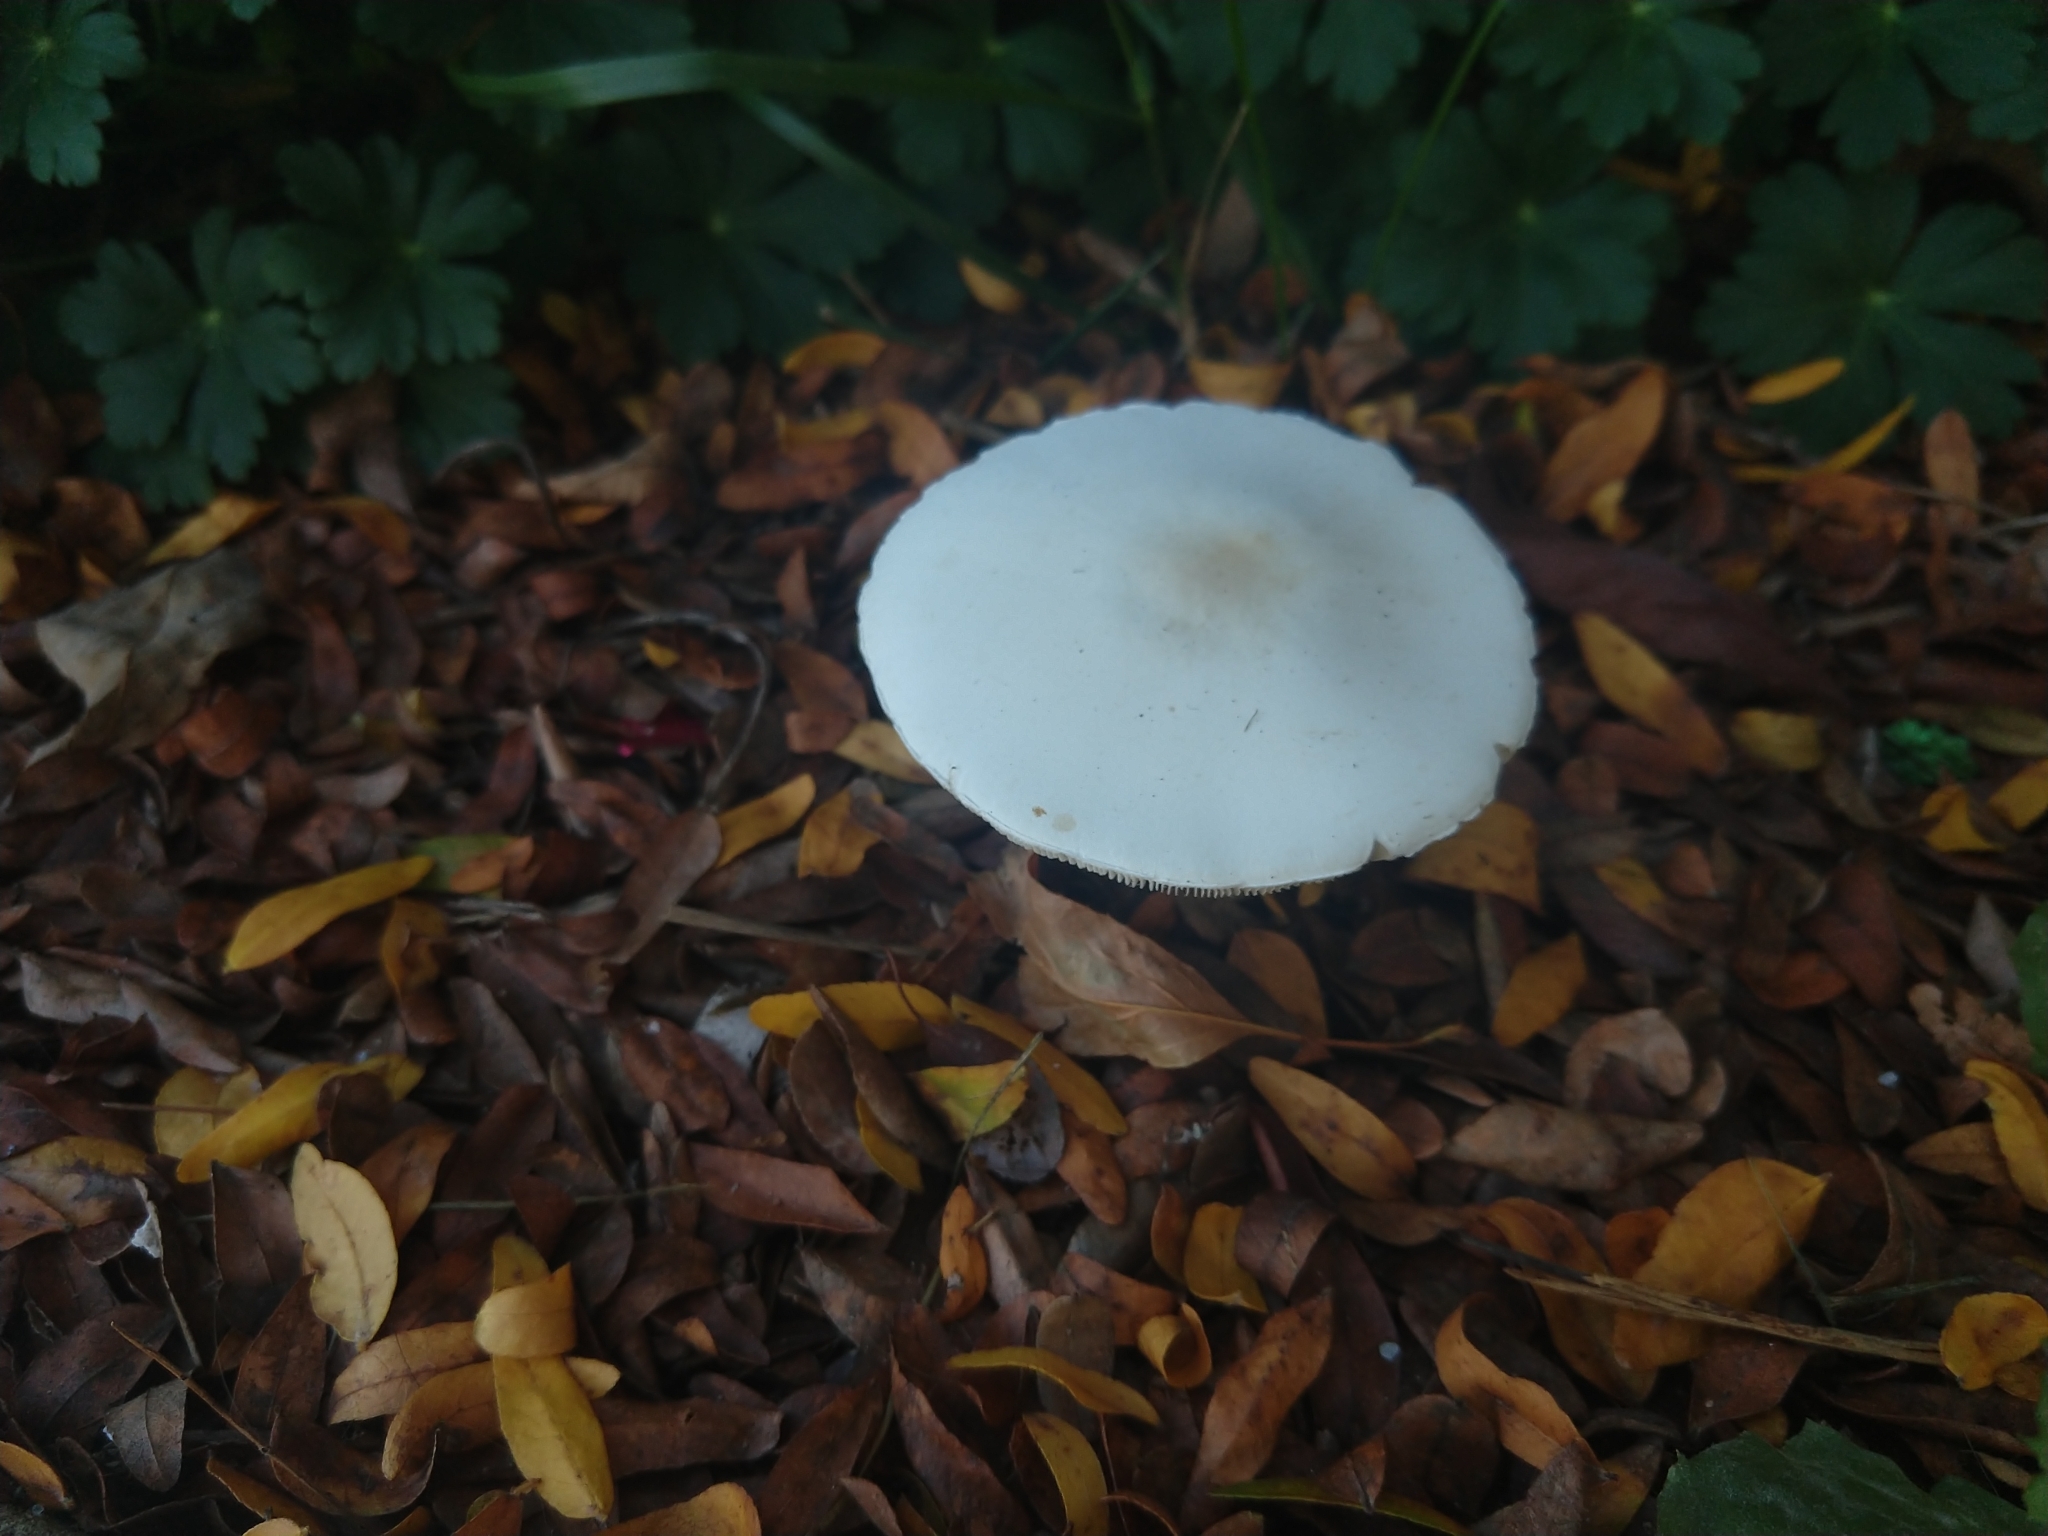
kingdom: Fungi
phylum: Basidiomycota
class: Agaricomycetes
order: Agaricales
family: Agaricaceae
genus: Leucoagaricus
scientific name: Leucoagaricus leucothites
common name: White dapperling
